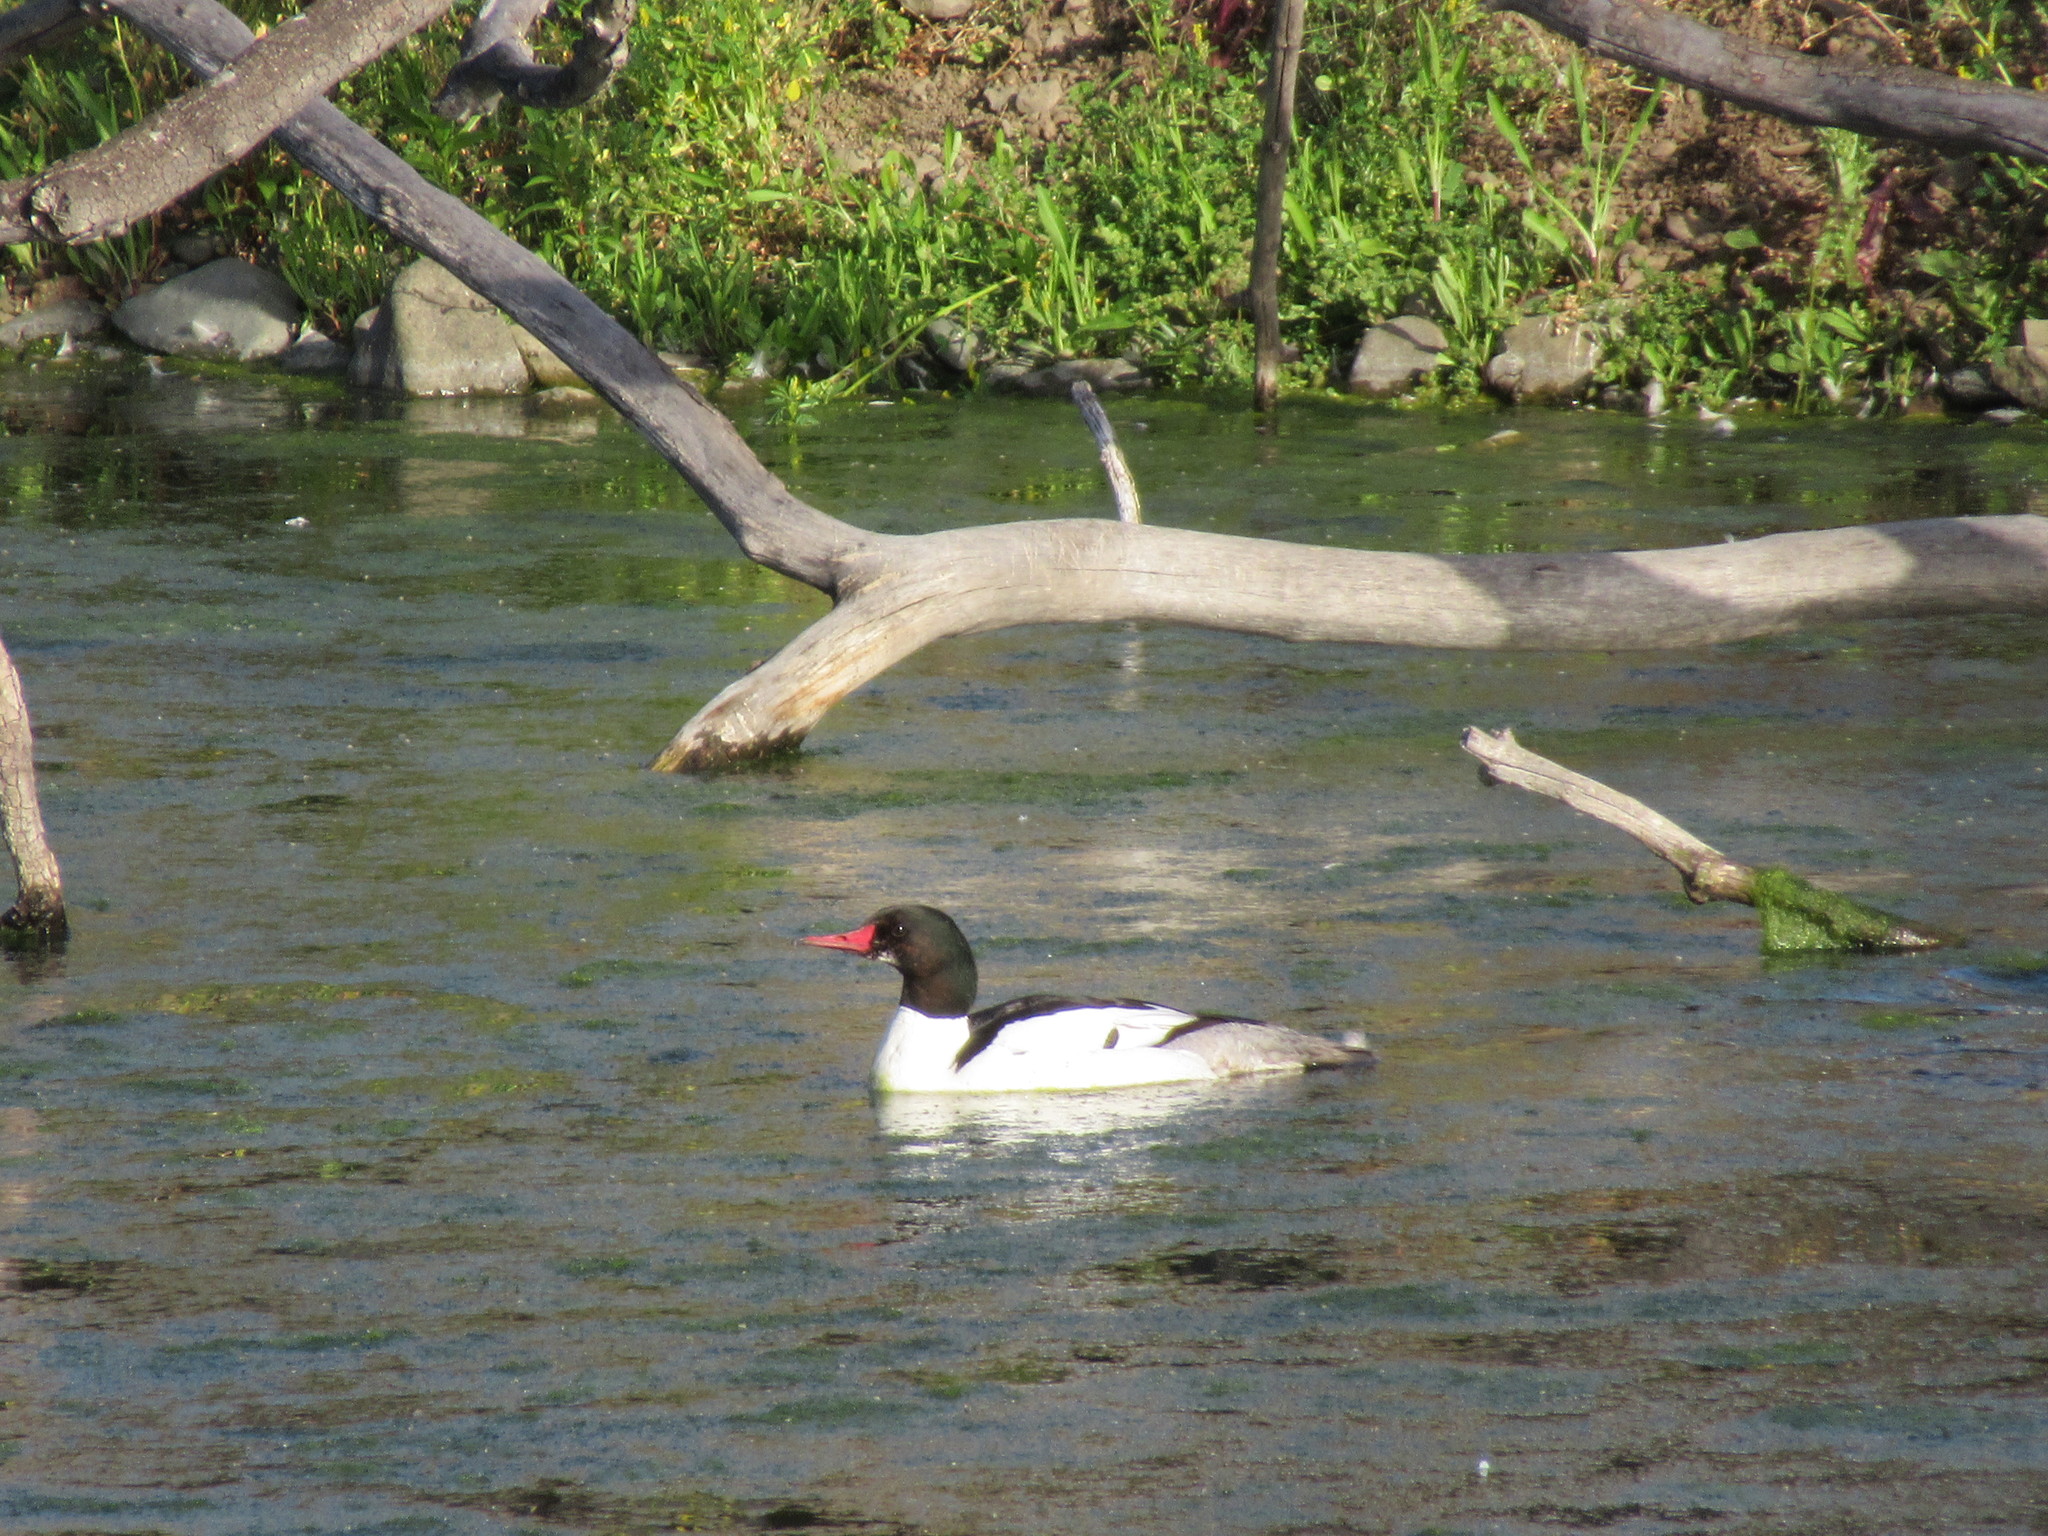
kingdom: Animalia
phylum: Chordata
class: Aves
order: Anseriformes
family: Anatidae
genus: Mergus
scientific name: Mergus merganser
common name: Common merganser
